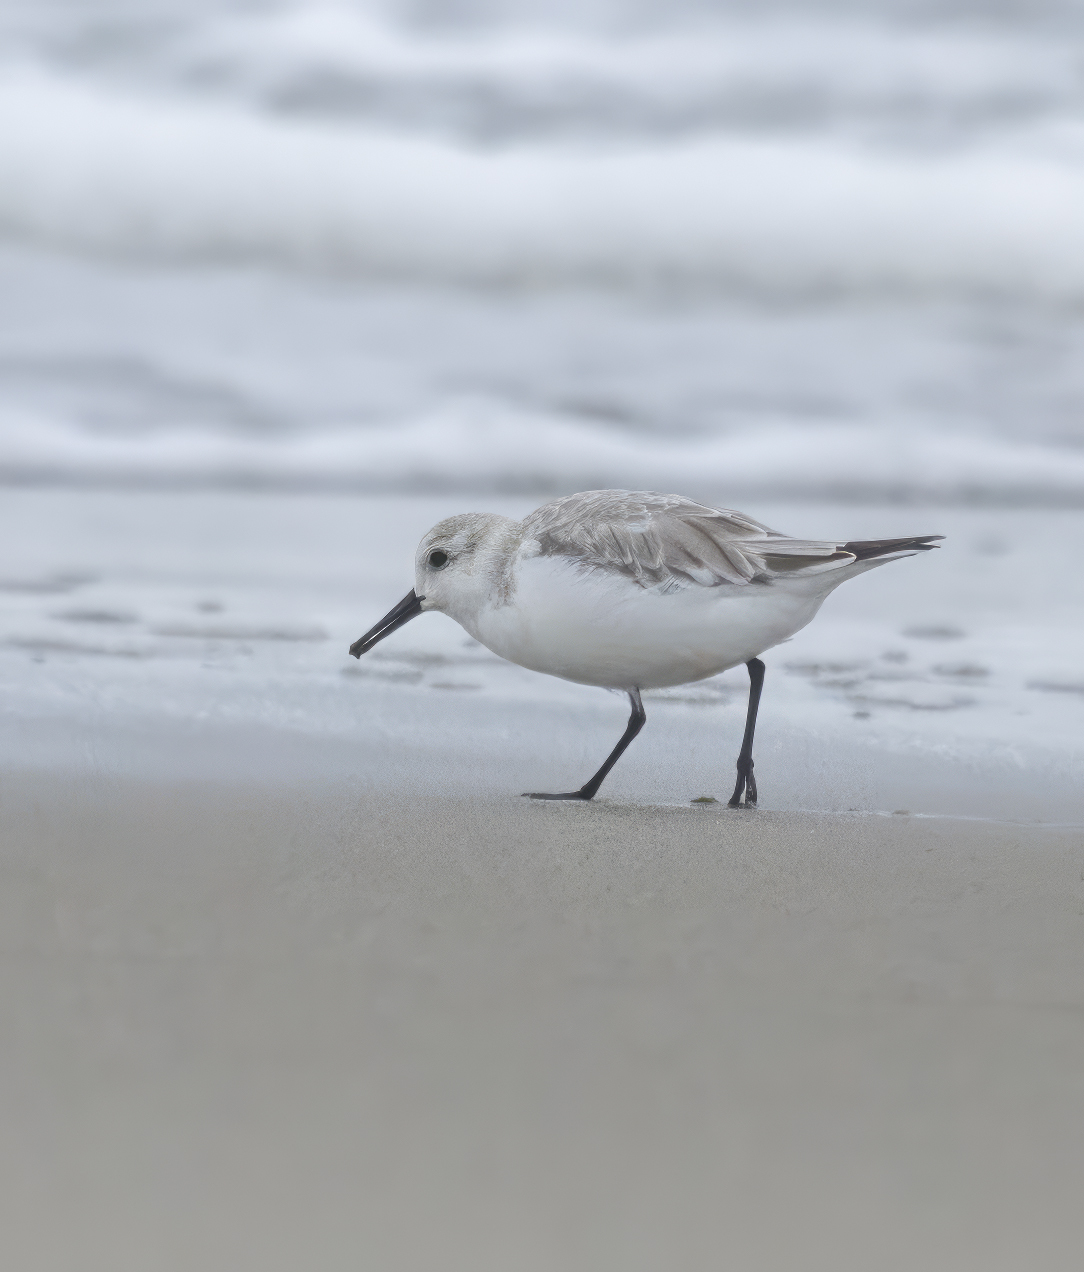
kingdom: Animalia
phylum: Chordata
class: Aves
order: Charadriiformes
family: Scolopacidae
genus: Calidris
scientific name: Calidris alba
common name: Sanderling
